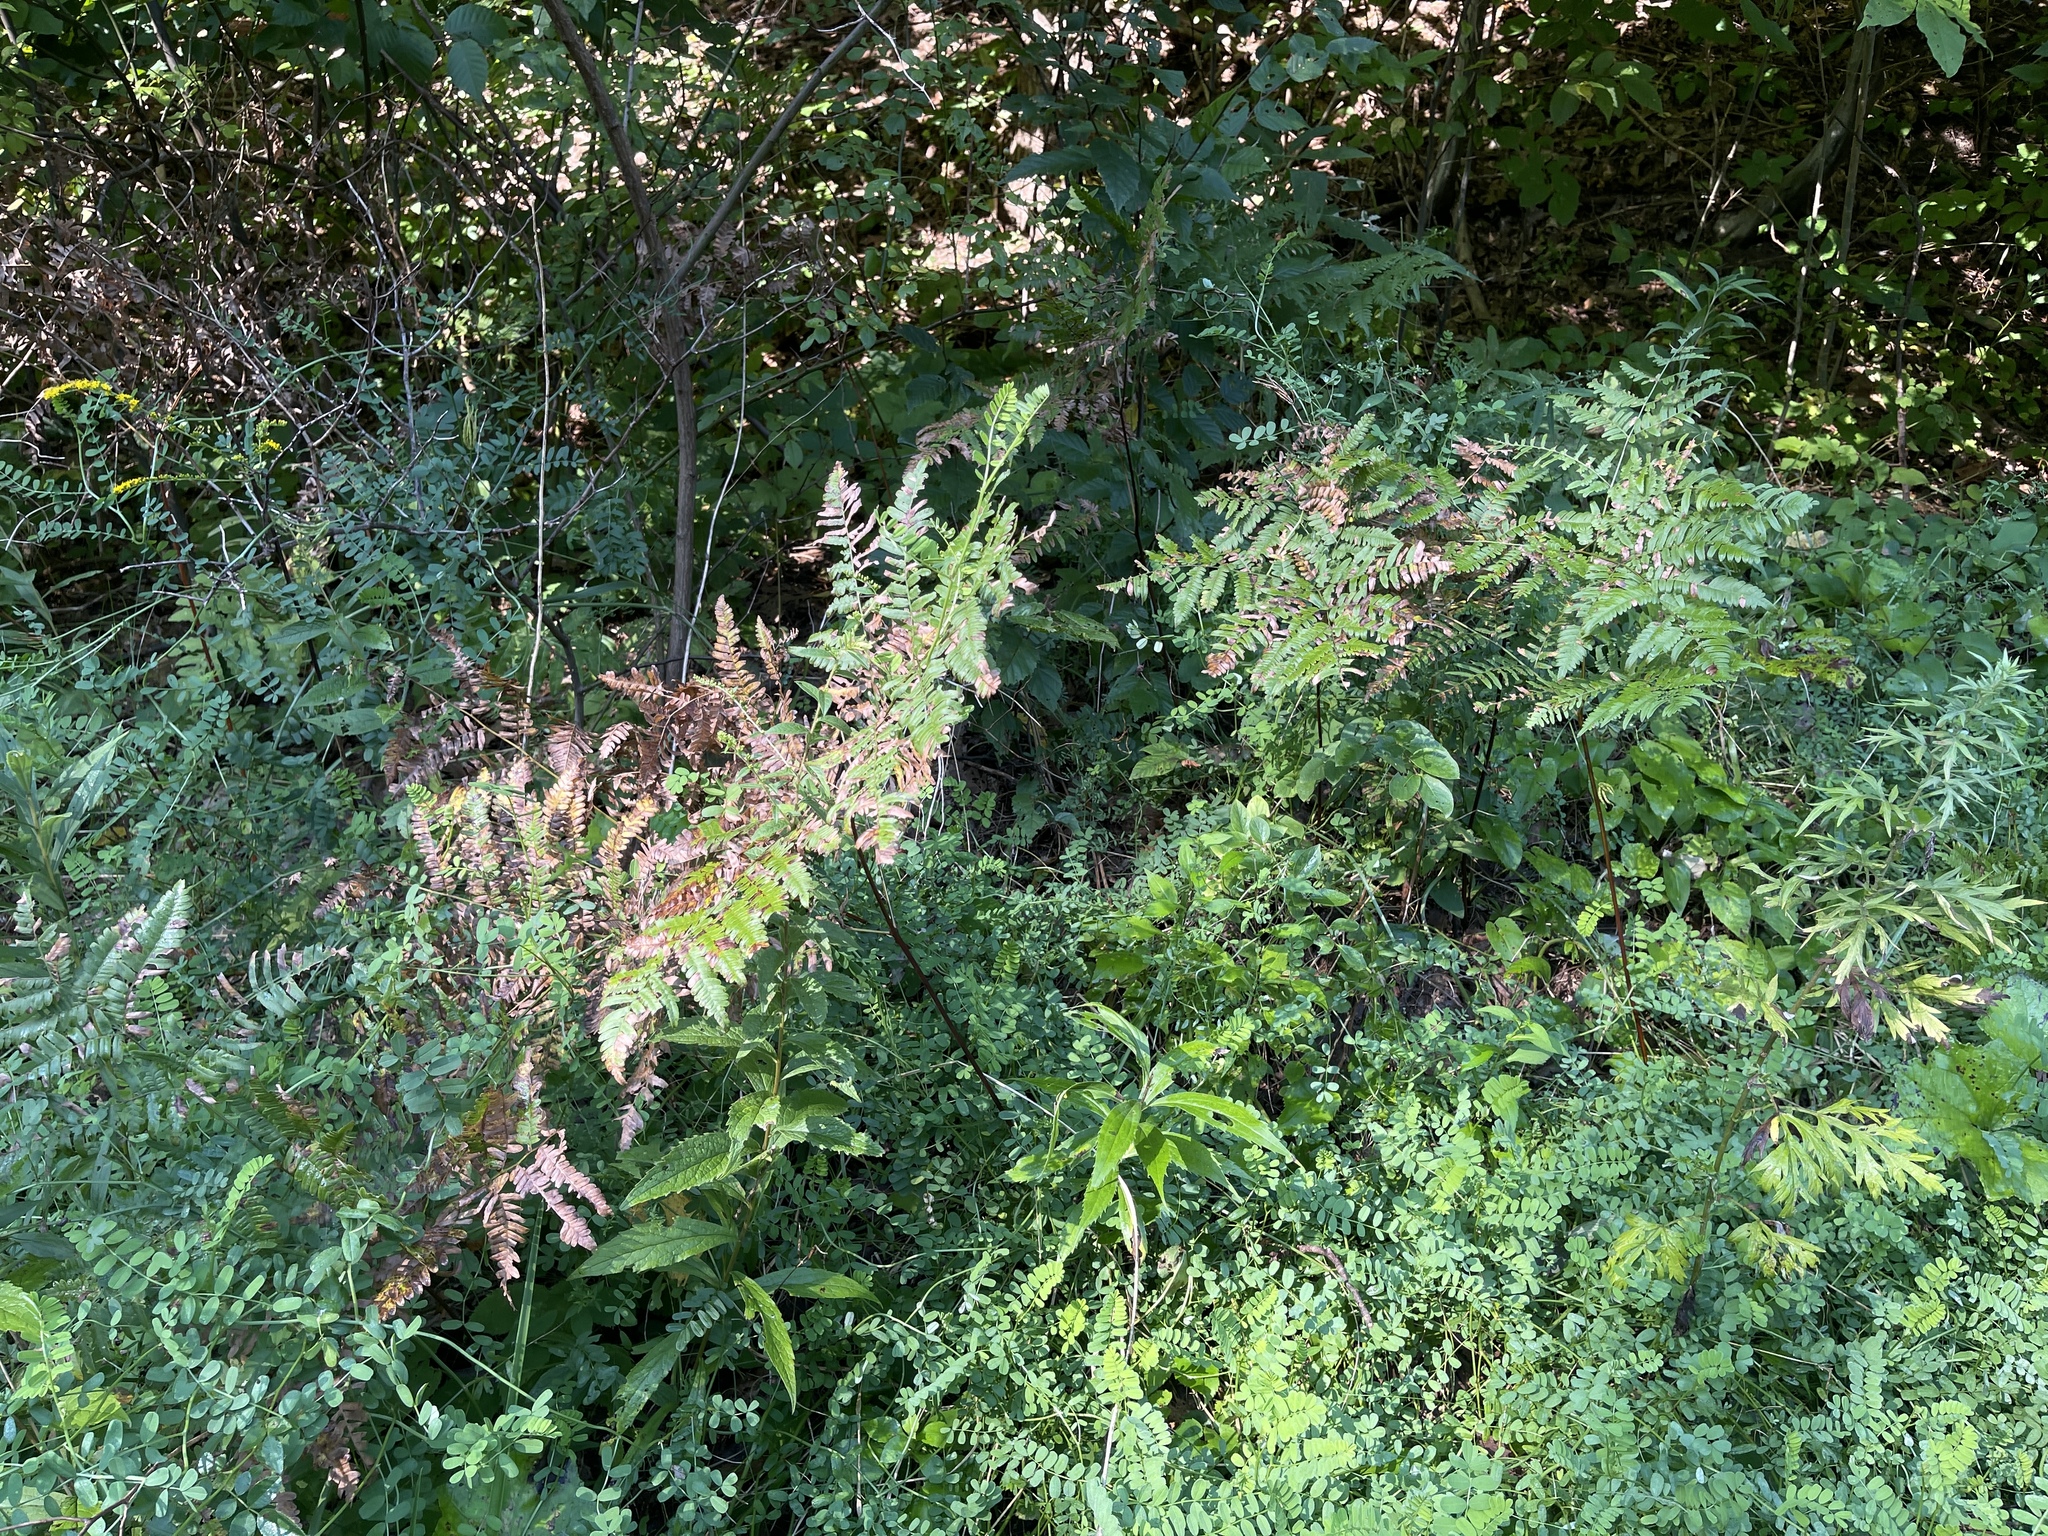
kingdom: Plantae
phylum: Tracheophyta
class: Polypodiopsida
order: Polypodiales
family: Dennstaedtiaceae
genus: Pteridium
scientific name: Pteridium aquilinum
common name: Bracken
